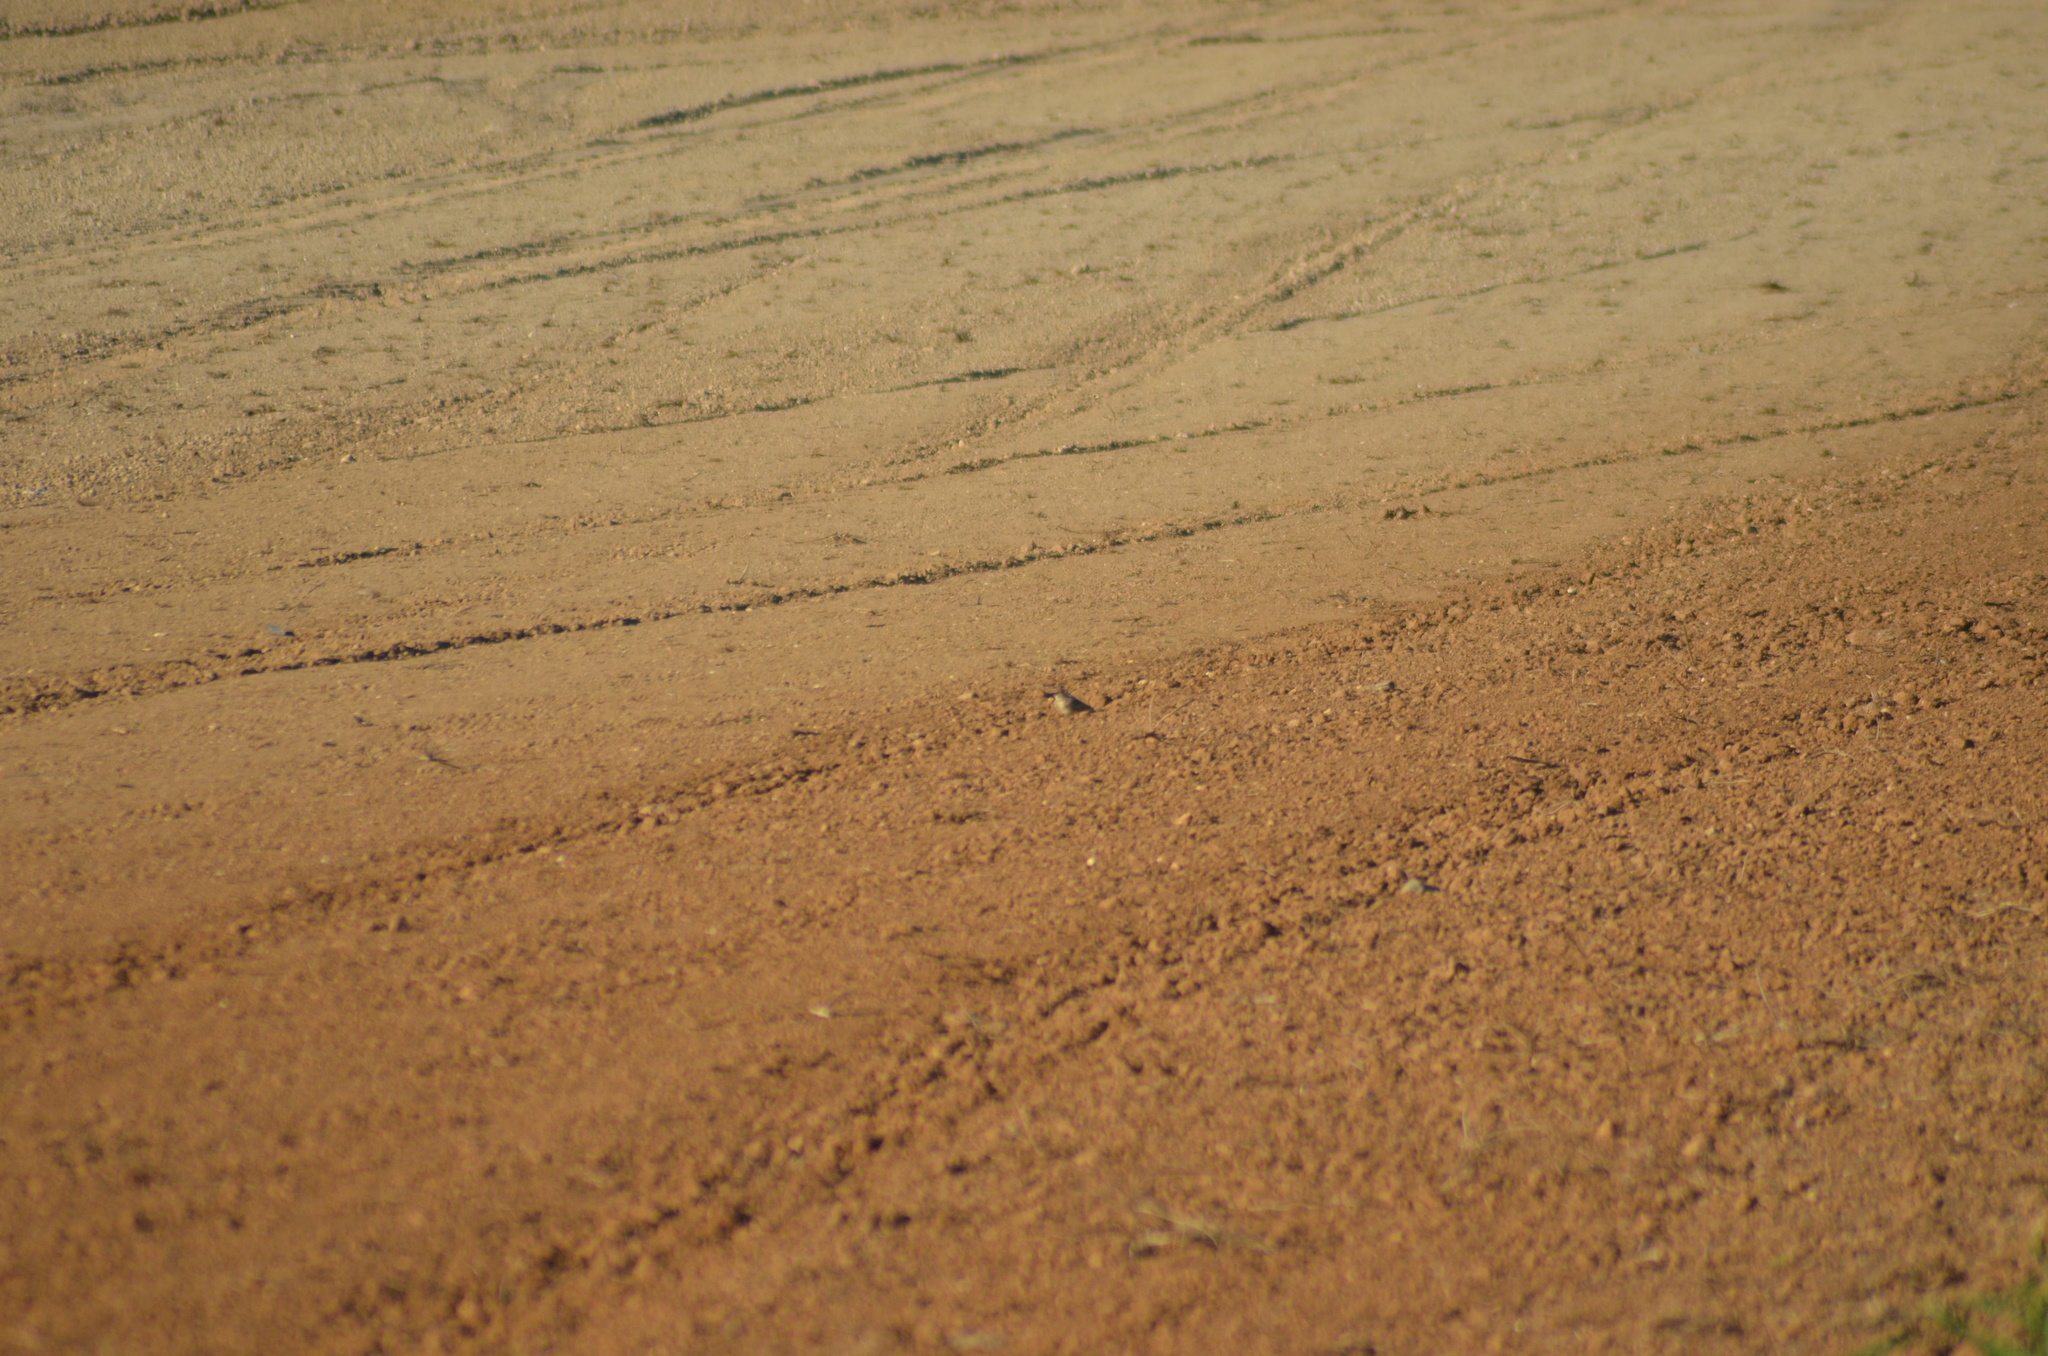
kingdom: Animalia
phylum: Chordata
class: Aves
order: Passeriformes
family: Alaudidae
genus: Galerida
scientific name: Galerida cristata
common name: Crested lark
